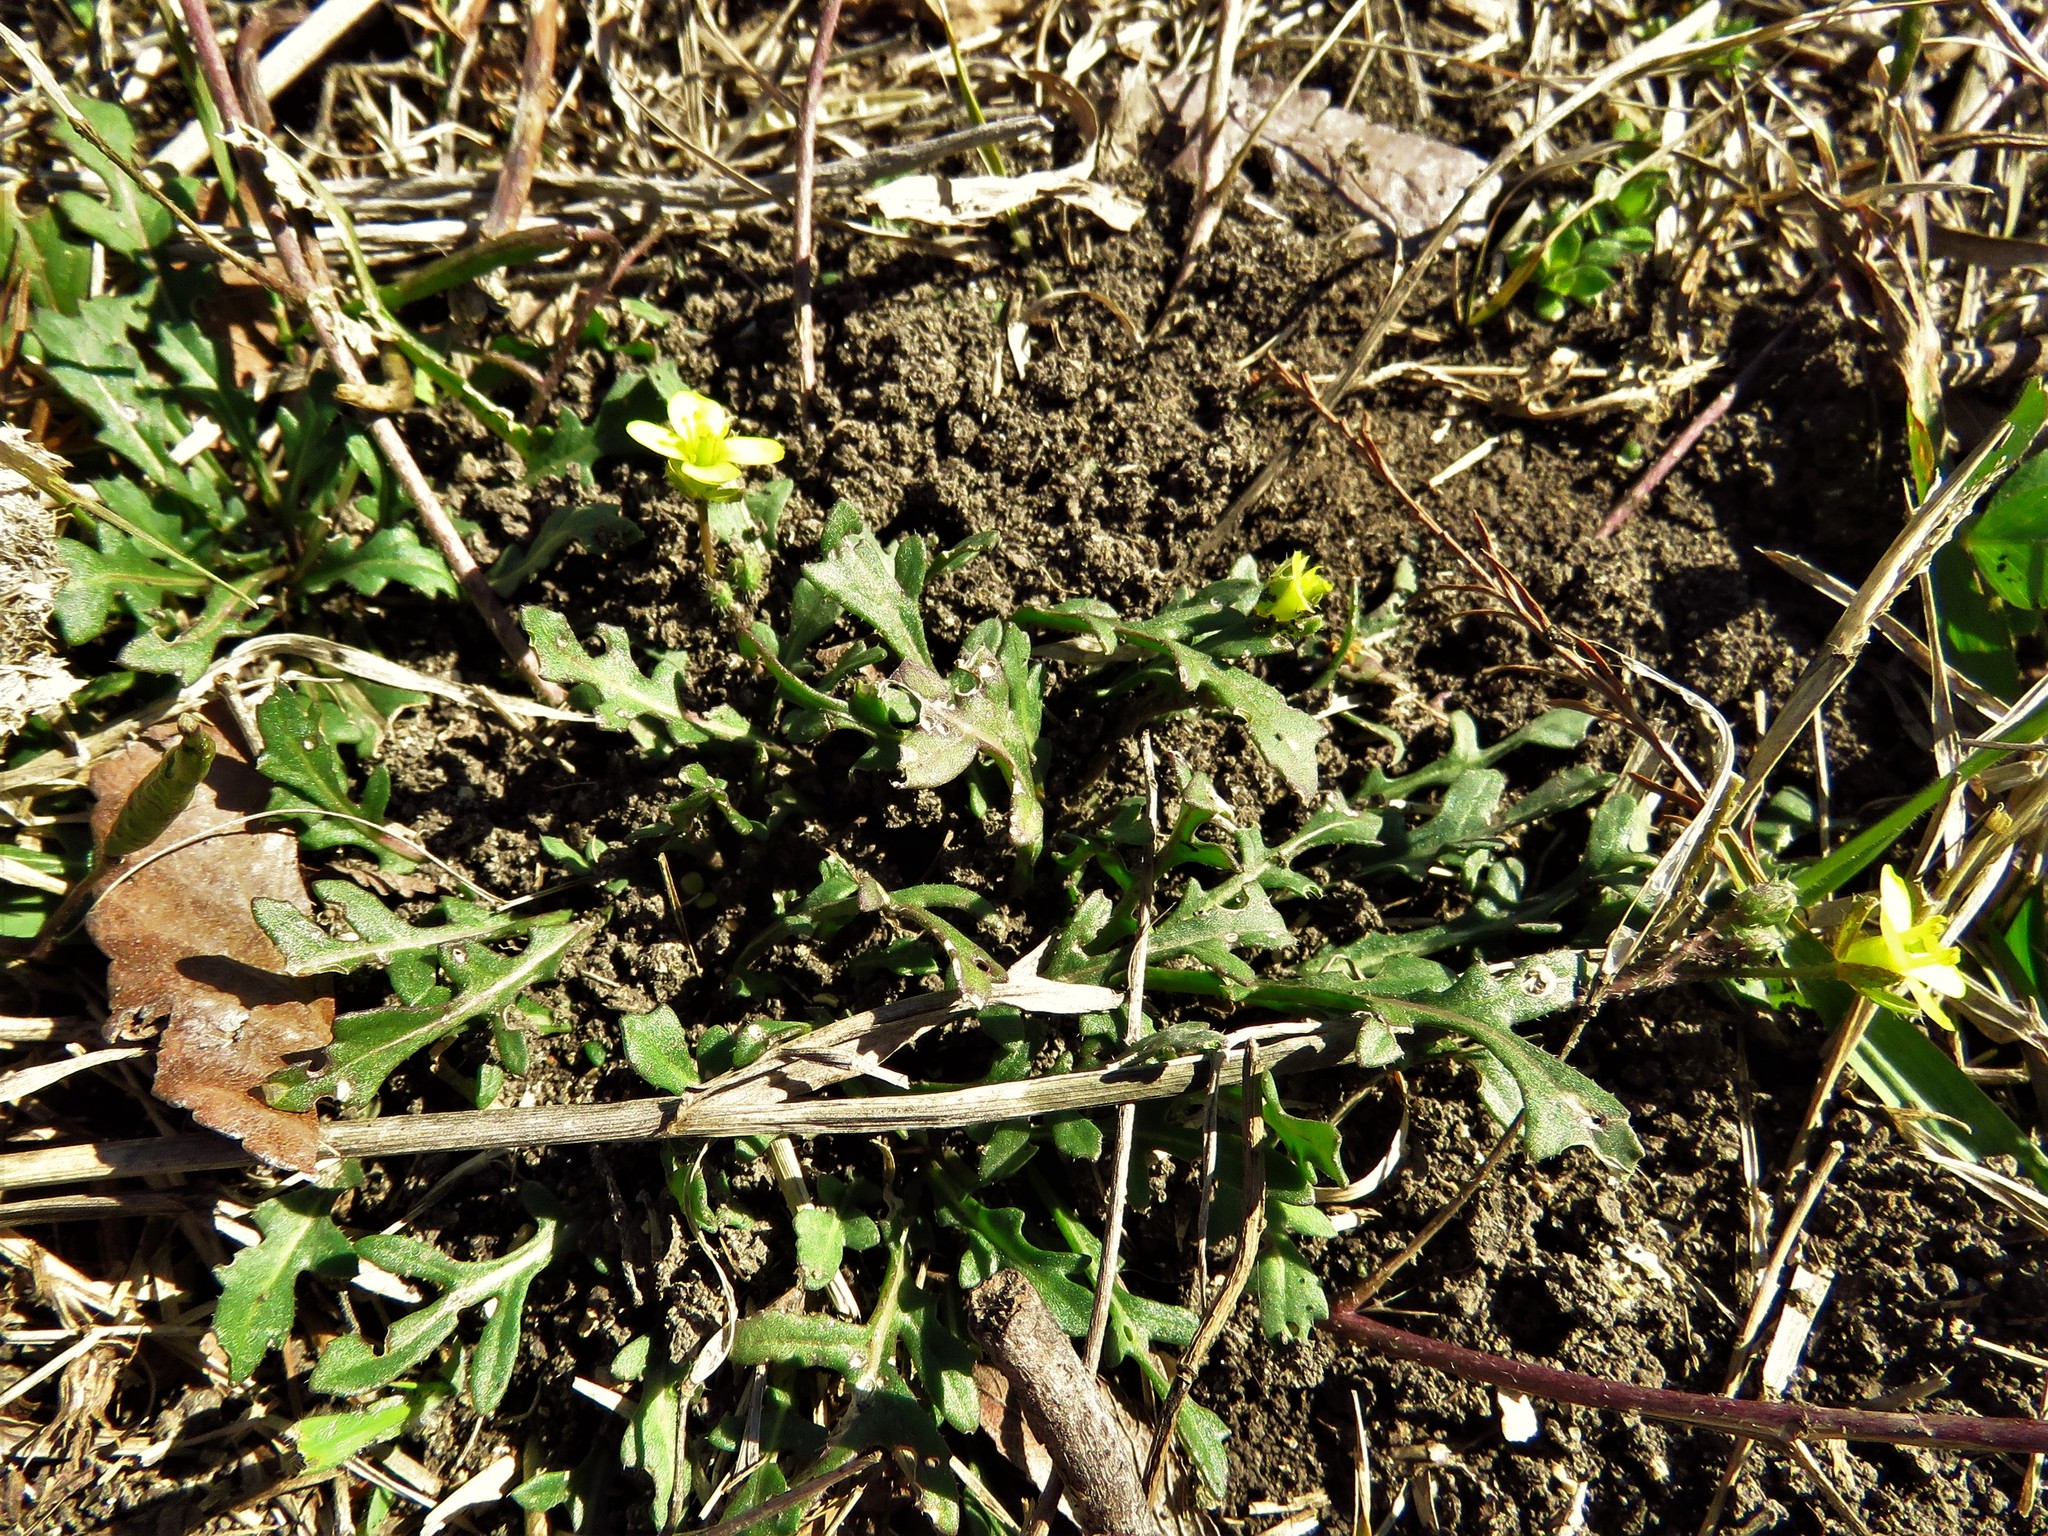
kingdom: Plantae
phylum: Tracheophyta
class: Magnoliopsida
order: Brassicales
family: Brassicaceae
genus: Diplotaxis
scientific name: Diplotaxis muralis
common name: Annual wall-rocket
